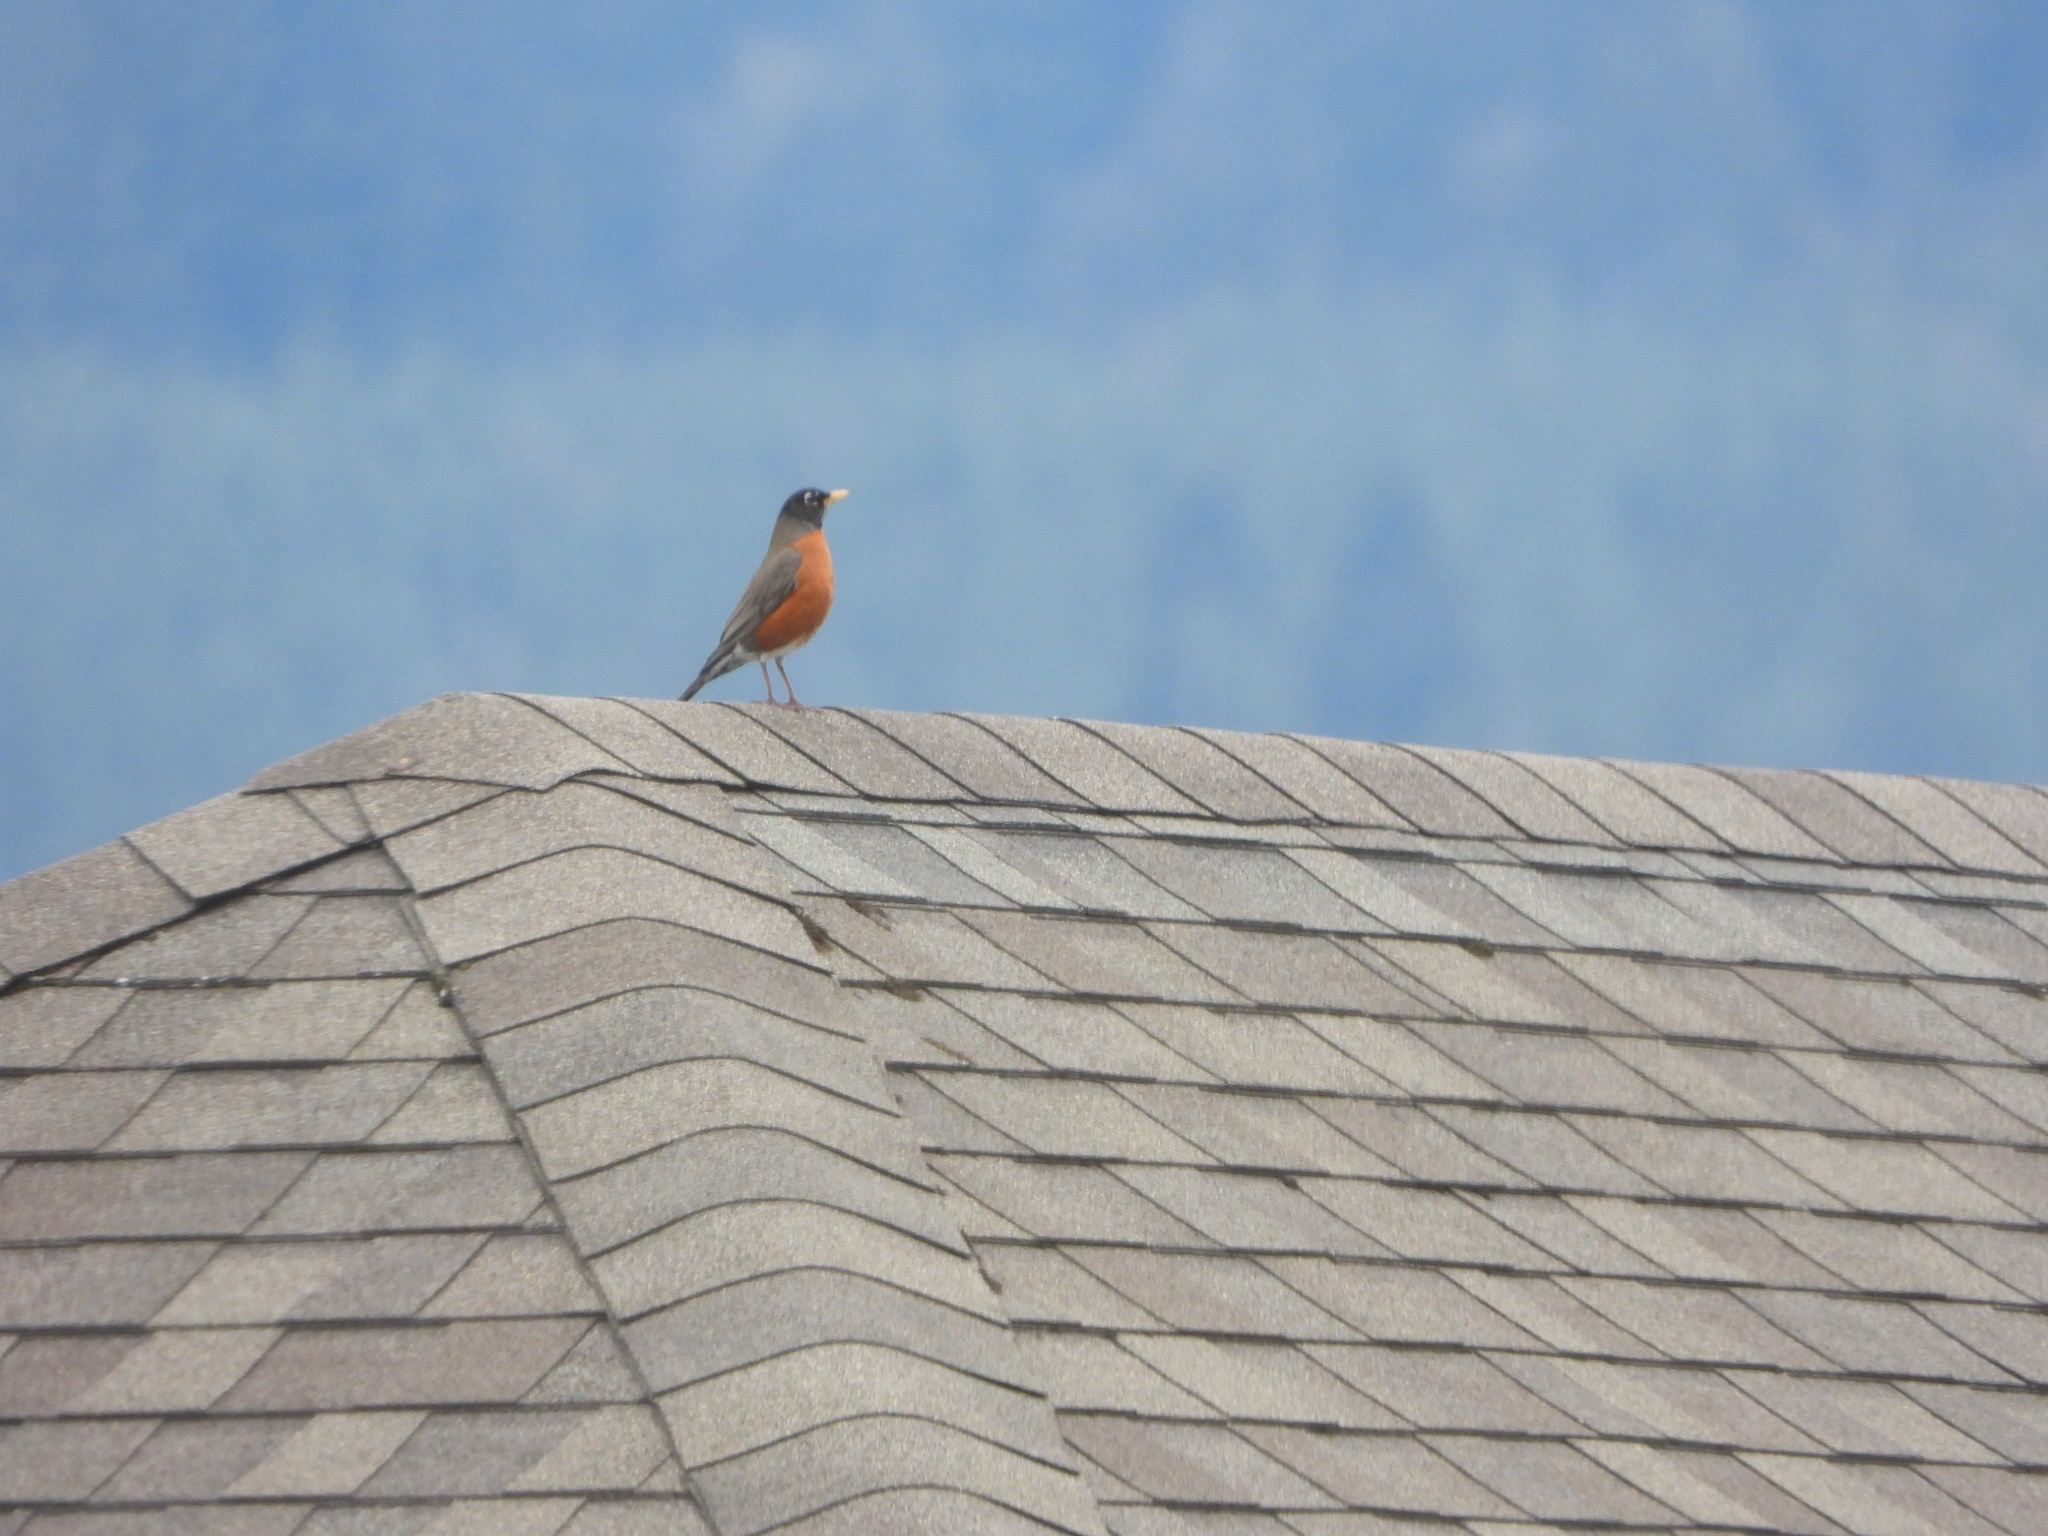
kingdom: Animalia
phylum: Chordata
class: Aves
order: Passeriformes
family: Turdidae
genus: Turdus
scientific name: Turdus migratorius
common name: American robin
